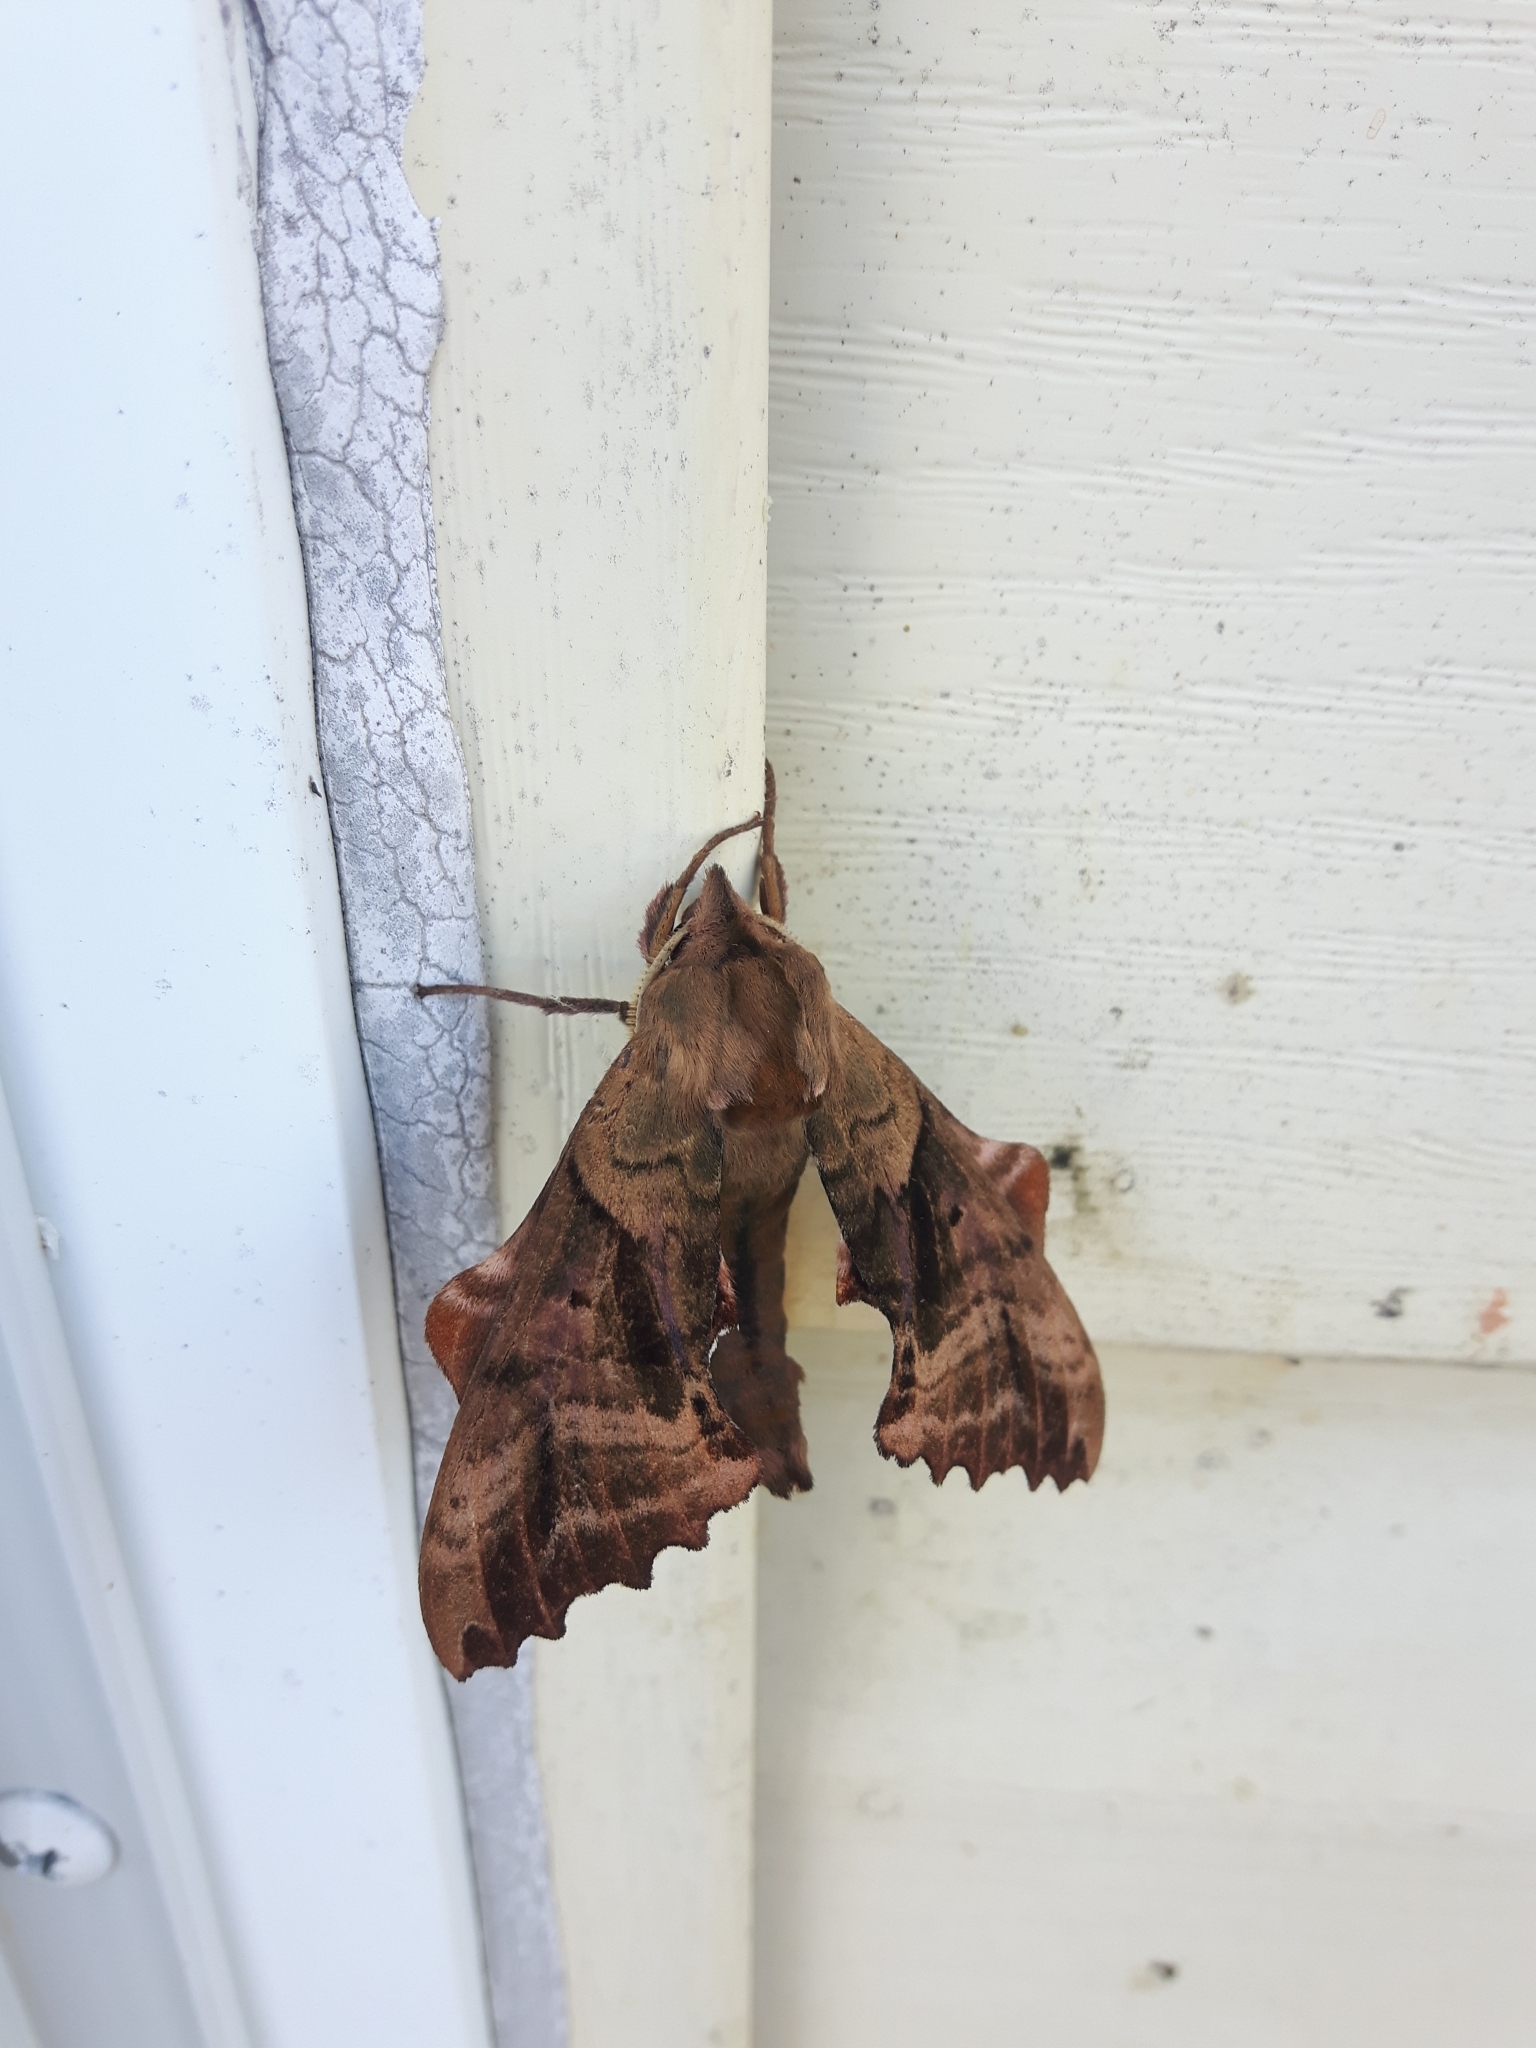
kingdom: Animalia
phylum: Arthropoda
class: Insecta
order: Lepidoptera
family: Sphingidae
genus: Paonias
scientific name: Paonias excaecata
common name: Blind-eyed sphinx
